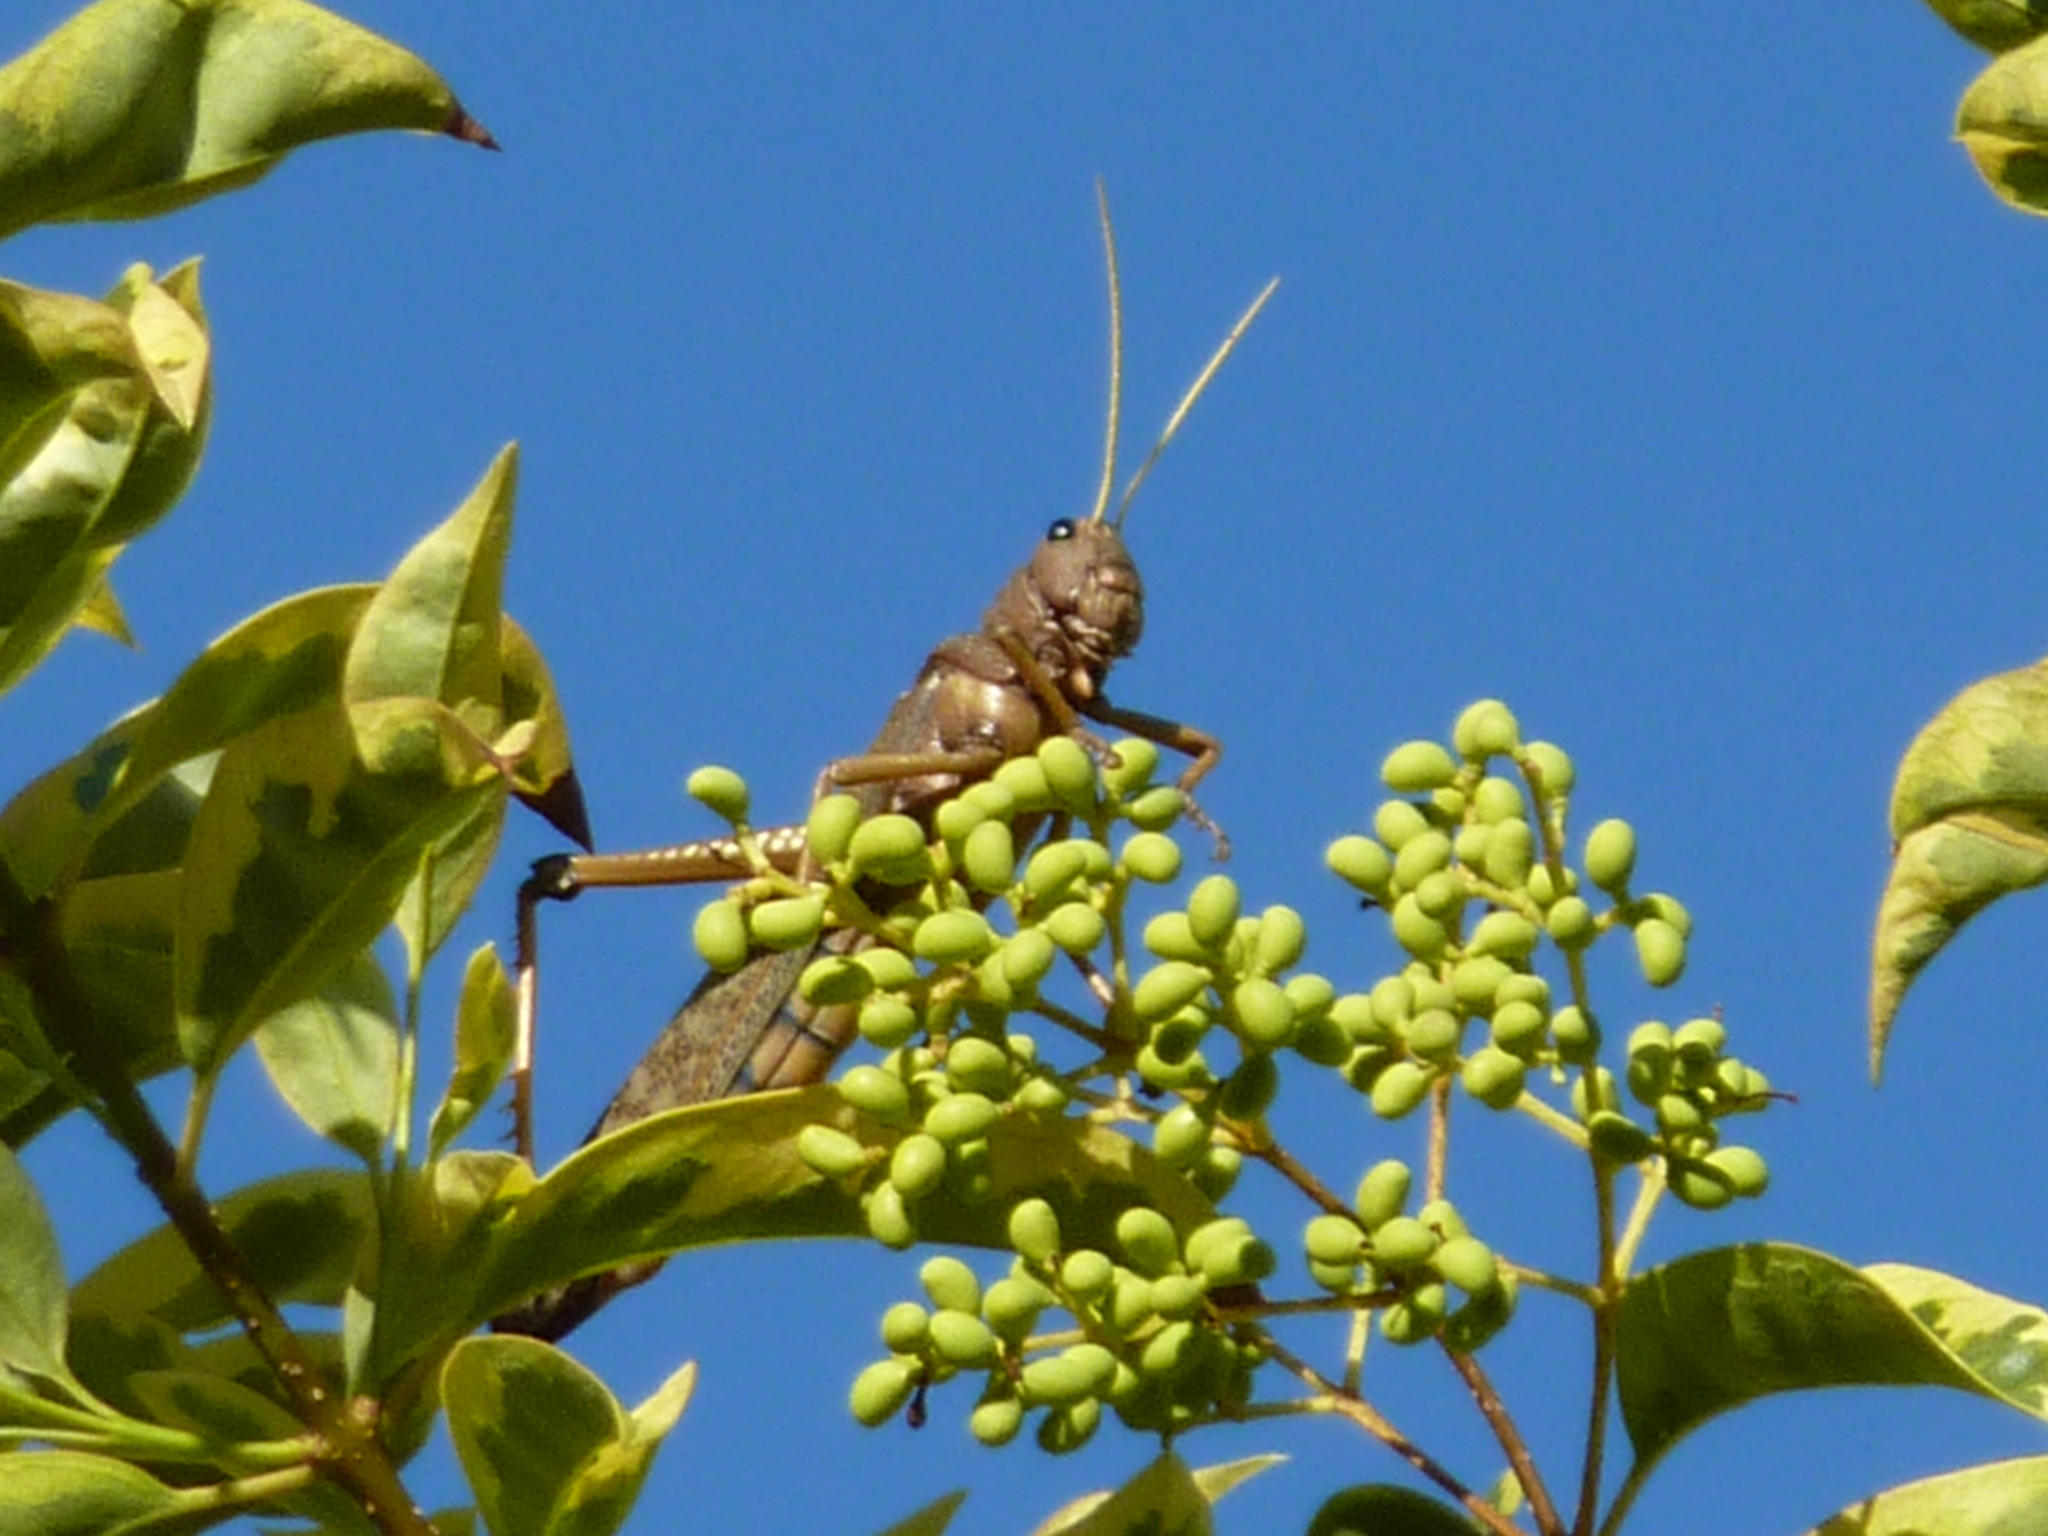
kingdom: Animalia
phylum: Arthropoda
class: Insecta
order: Orthoptera
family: Romaleidae
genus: Tropidacris
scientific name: Tropidacris collaris
